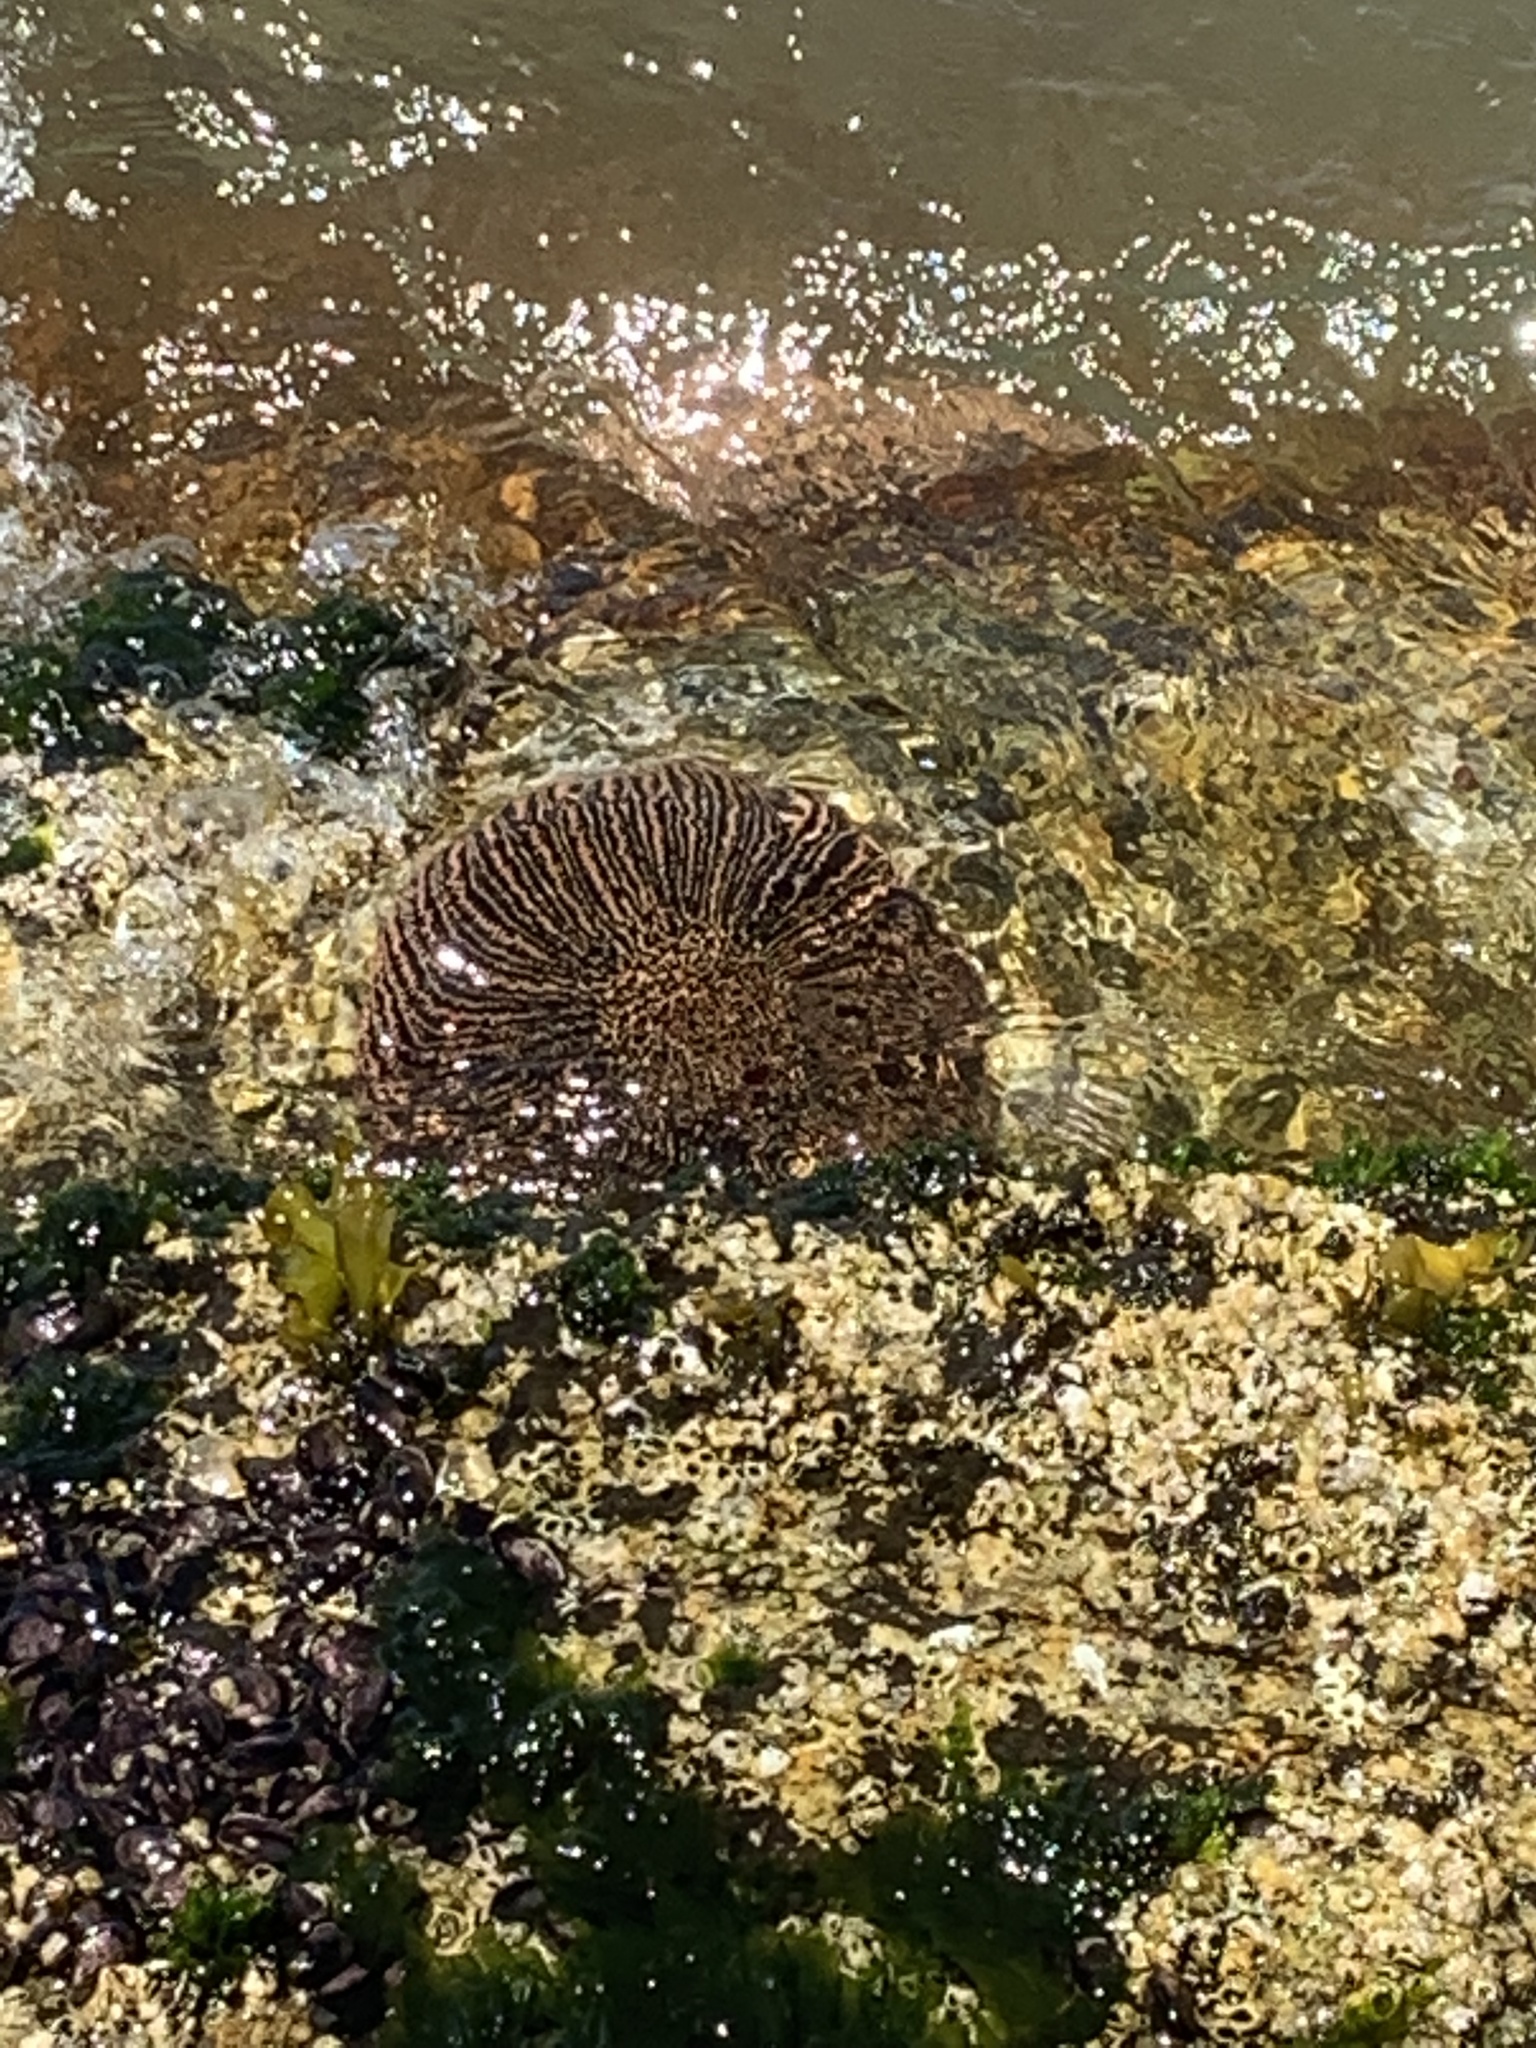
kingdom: Animalia
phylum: Echinodermata
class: Asteroidea
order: Forcipulatida
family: Heliasteridae
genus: Heliaster
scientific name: Heliaster helianthus
